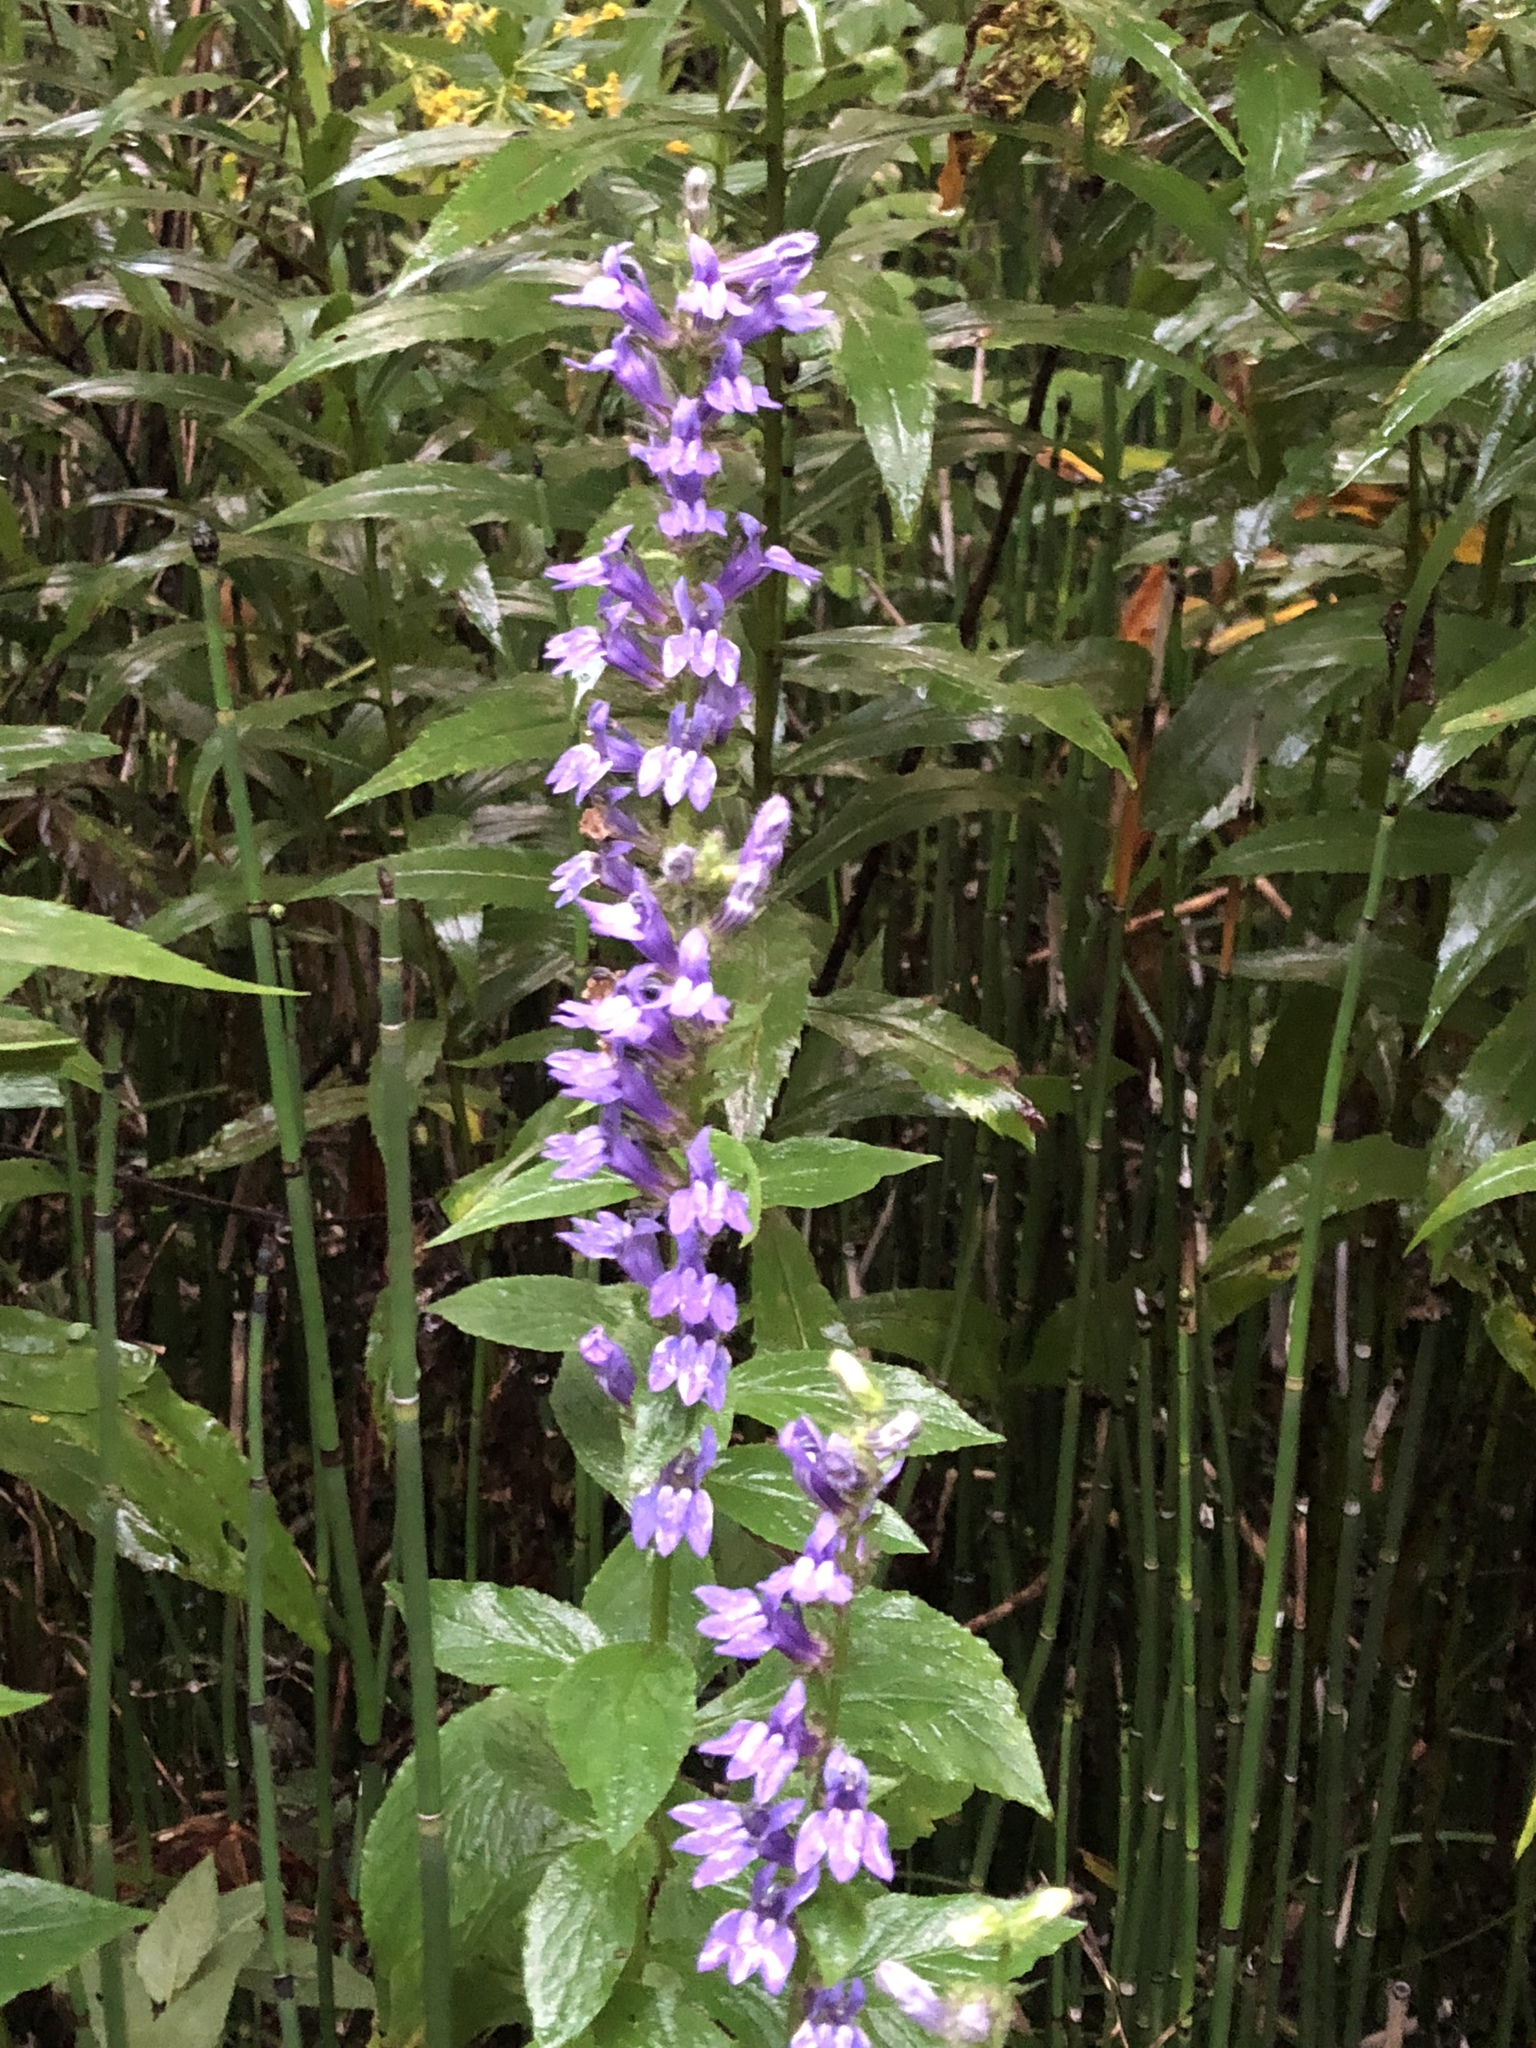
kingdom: Plantae
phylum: Tracheophyta
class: Magnoliopsida
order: Asterales
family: Campanulaceae
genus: Lobelia
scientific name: Lobelia siphilitica
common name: Great lobelia
